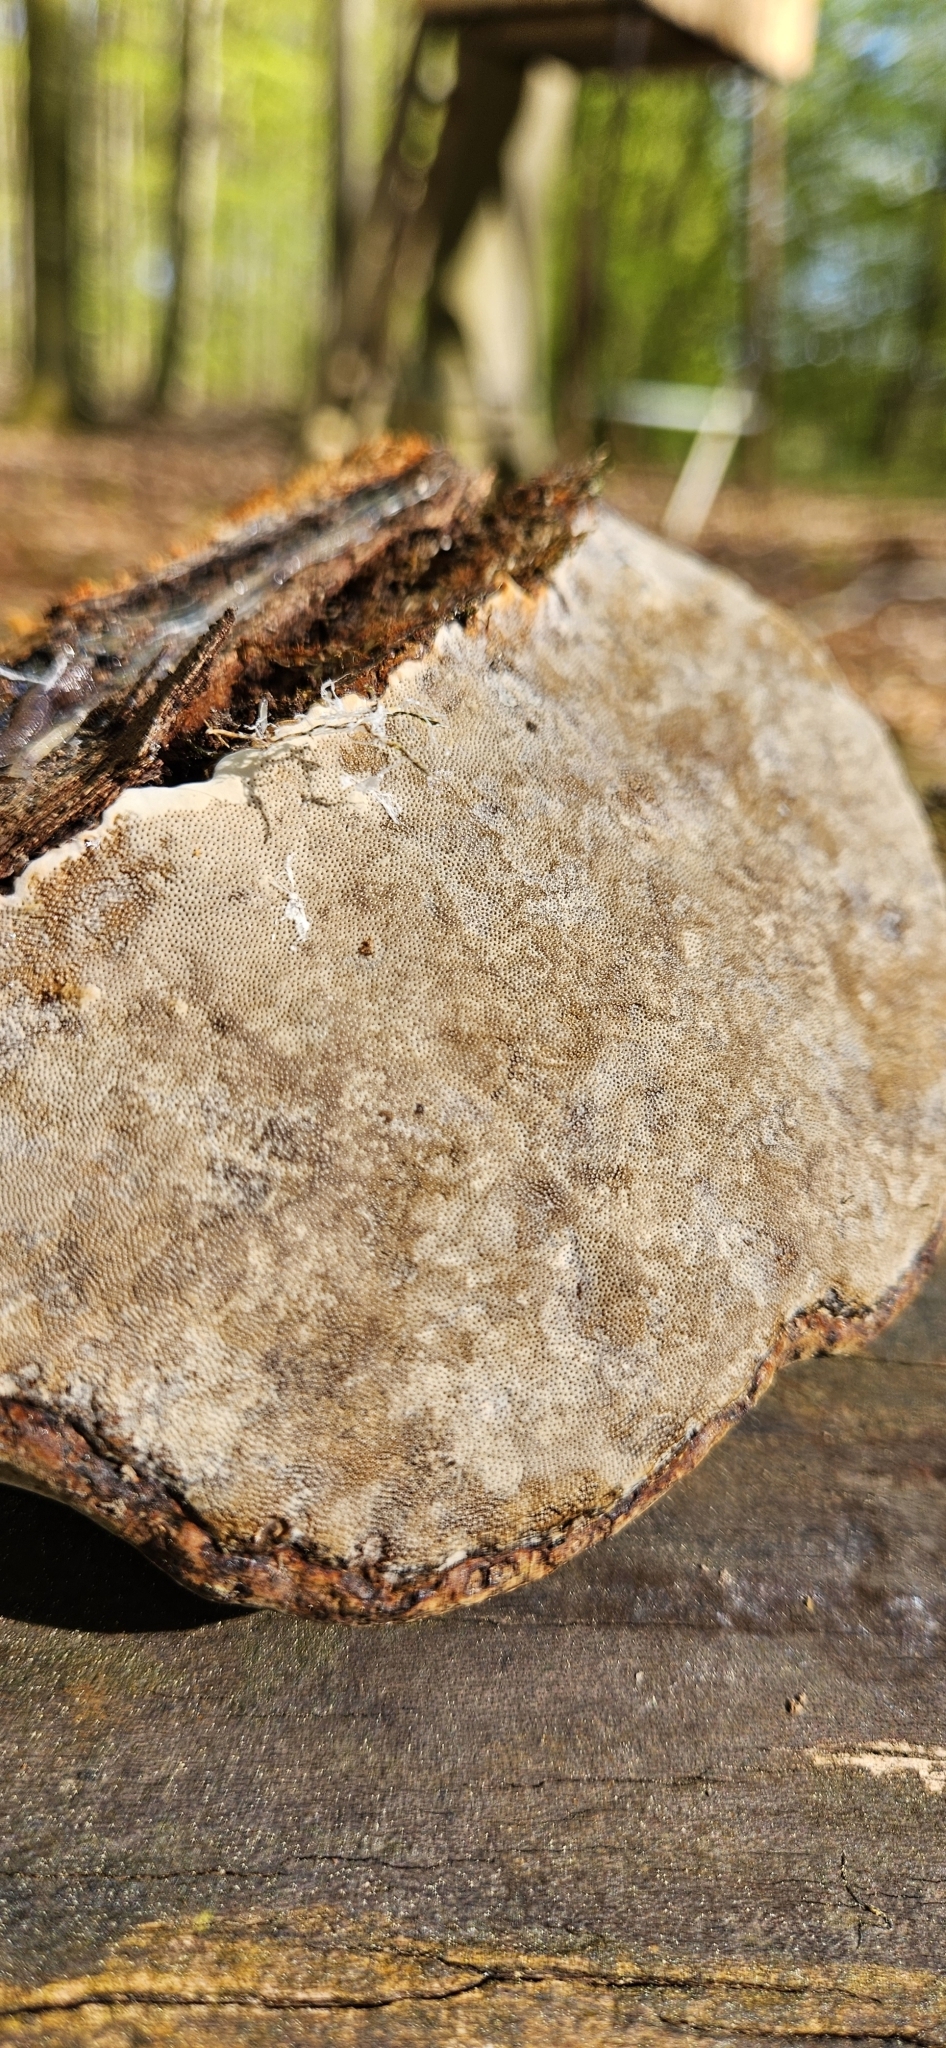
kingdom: Fungi
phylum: Basidiomycota
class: Agaricomycetes
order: Polyporales
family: Polyporaceae
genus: Fomes
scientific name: Fomes fomentarius
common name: Hoof fungus
